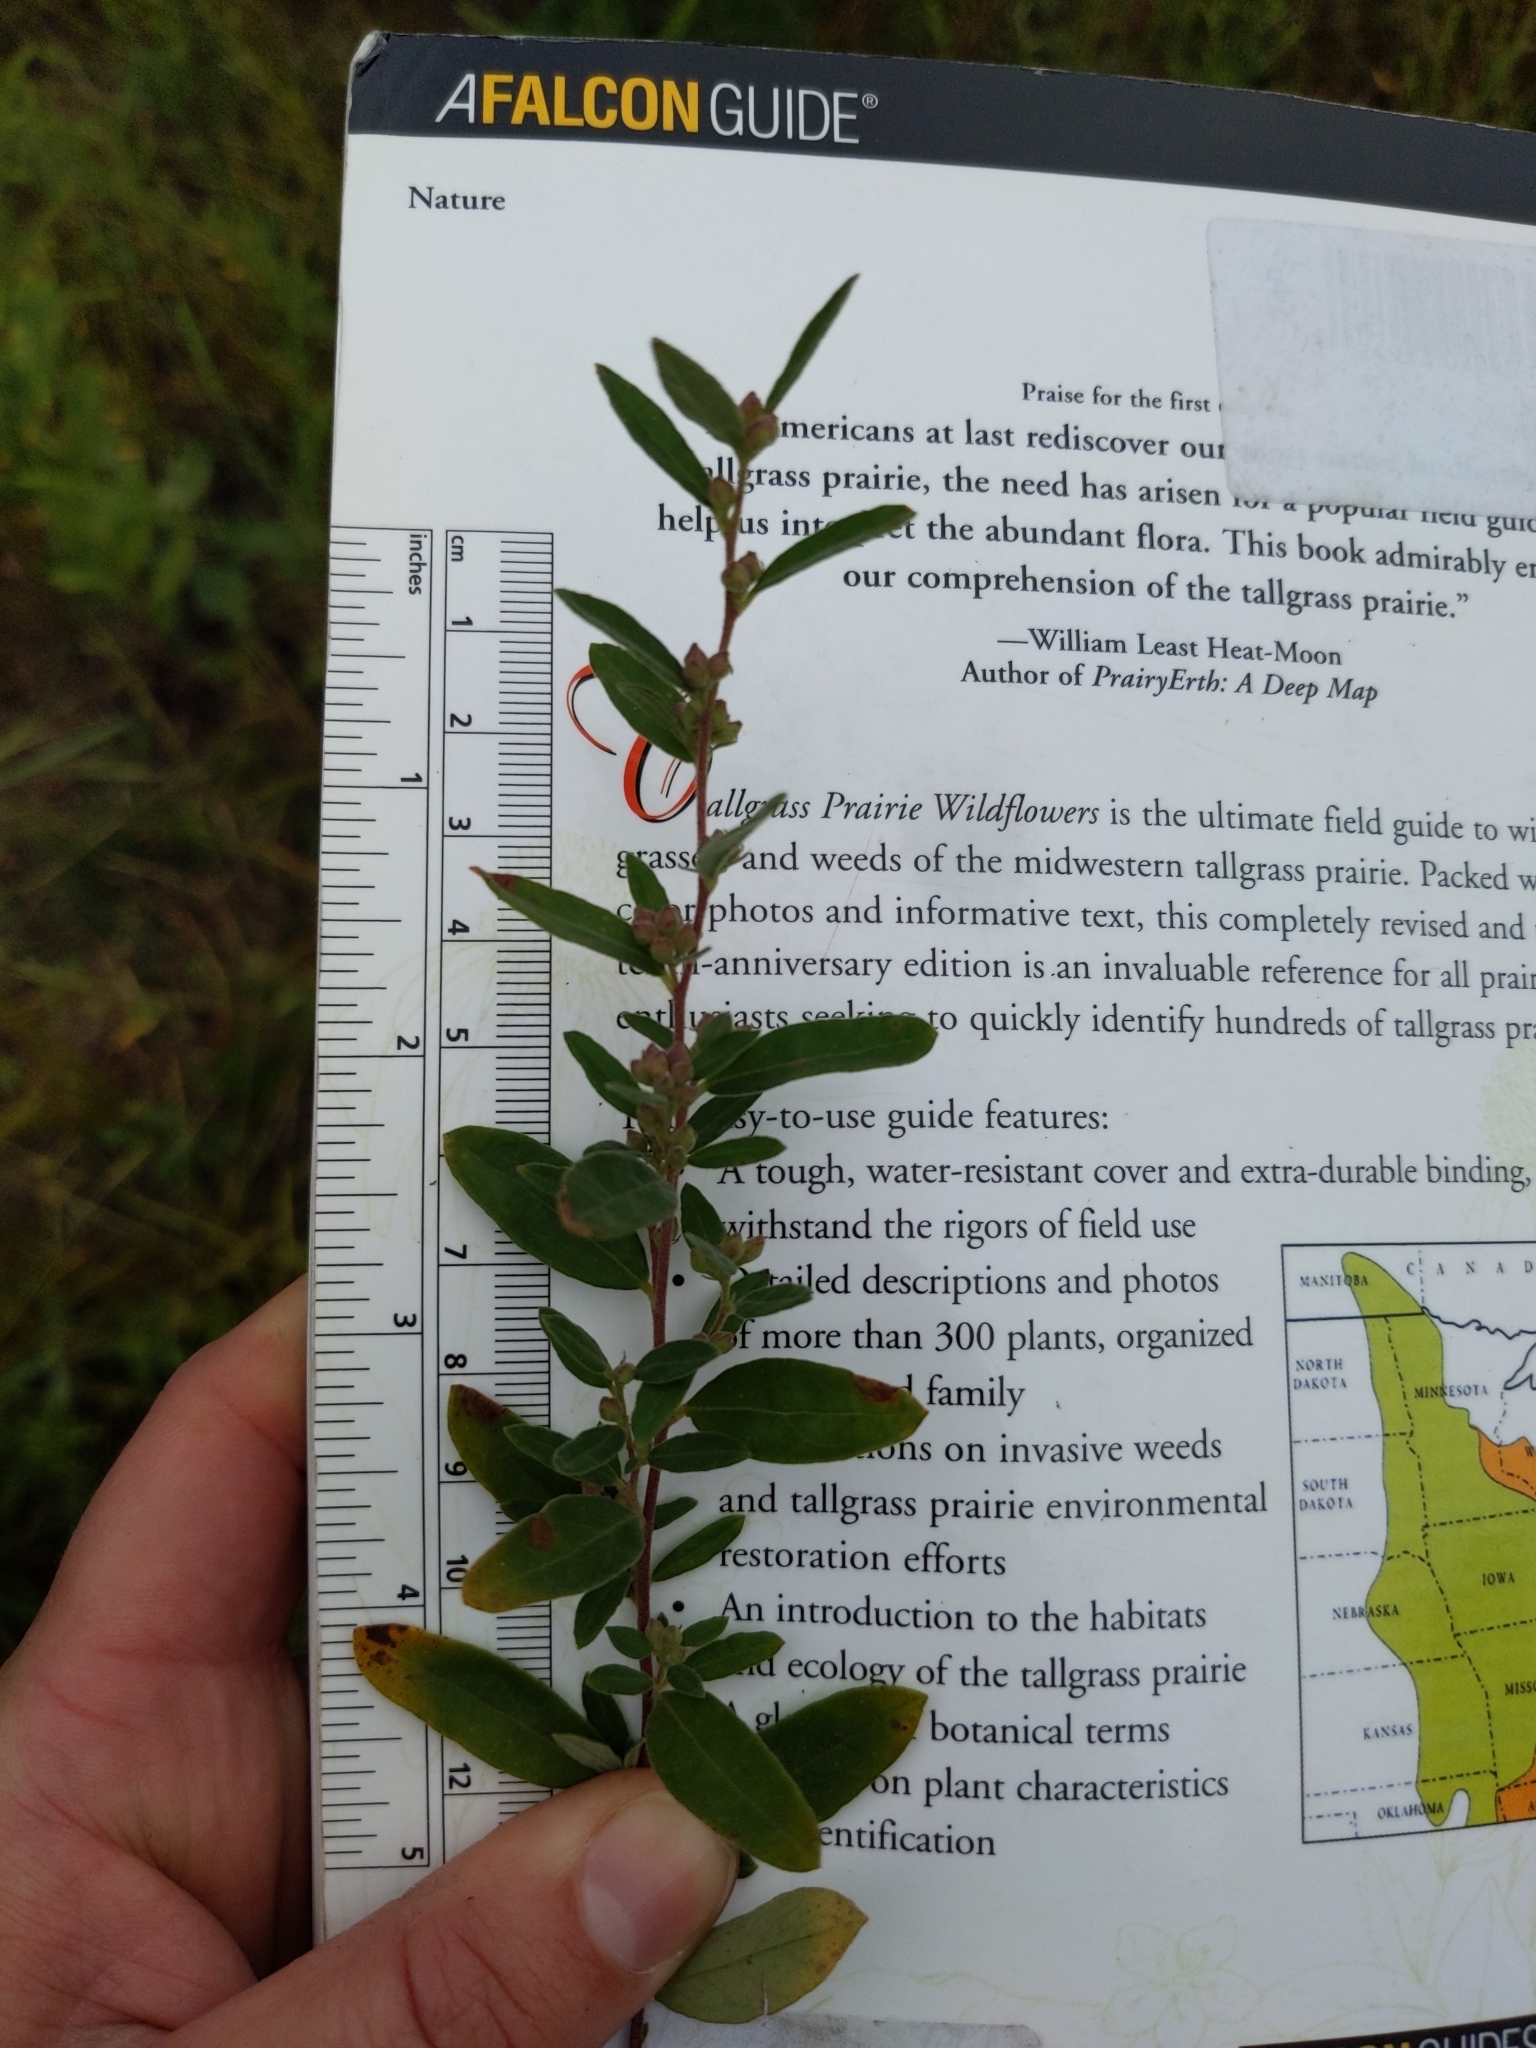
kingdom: Plantae
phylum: Tracheophyta
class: Magnoliopsida
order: Malvales
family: Cistaceae
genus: Crocanthemum
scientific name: Crocanthemum bicknellii
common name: Hoary frostweed
